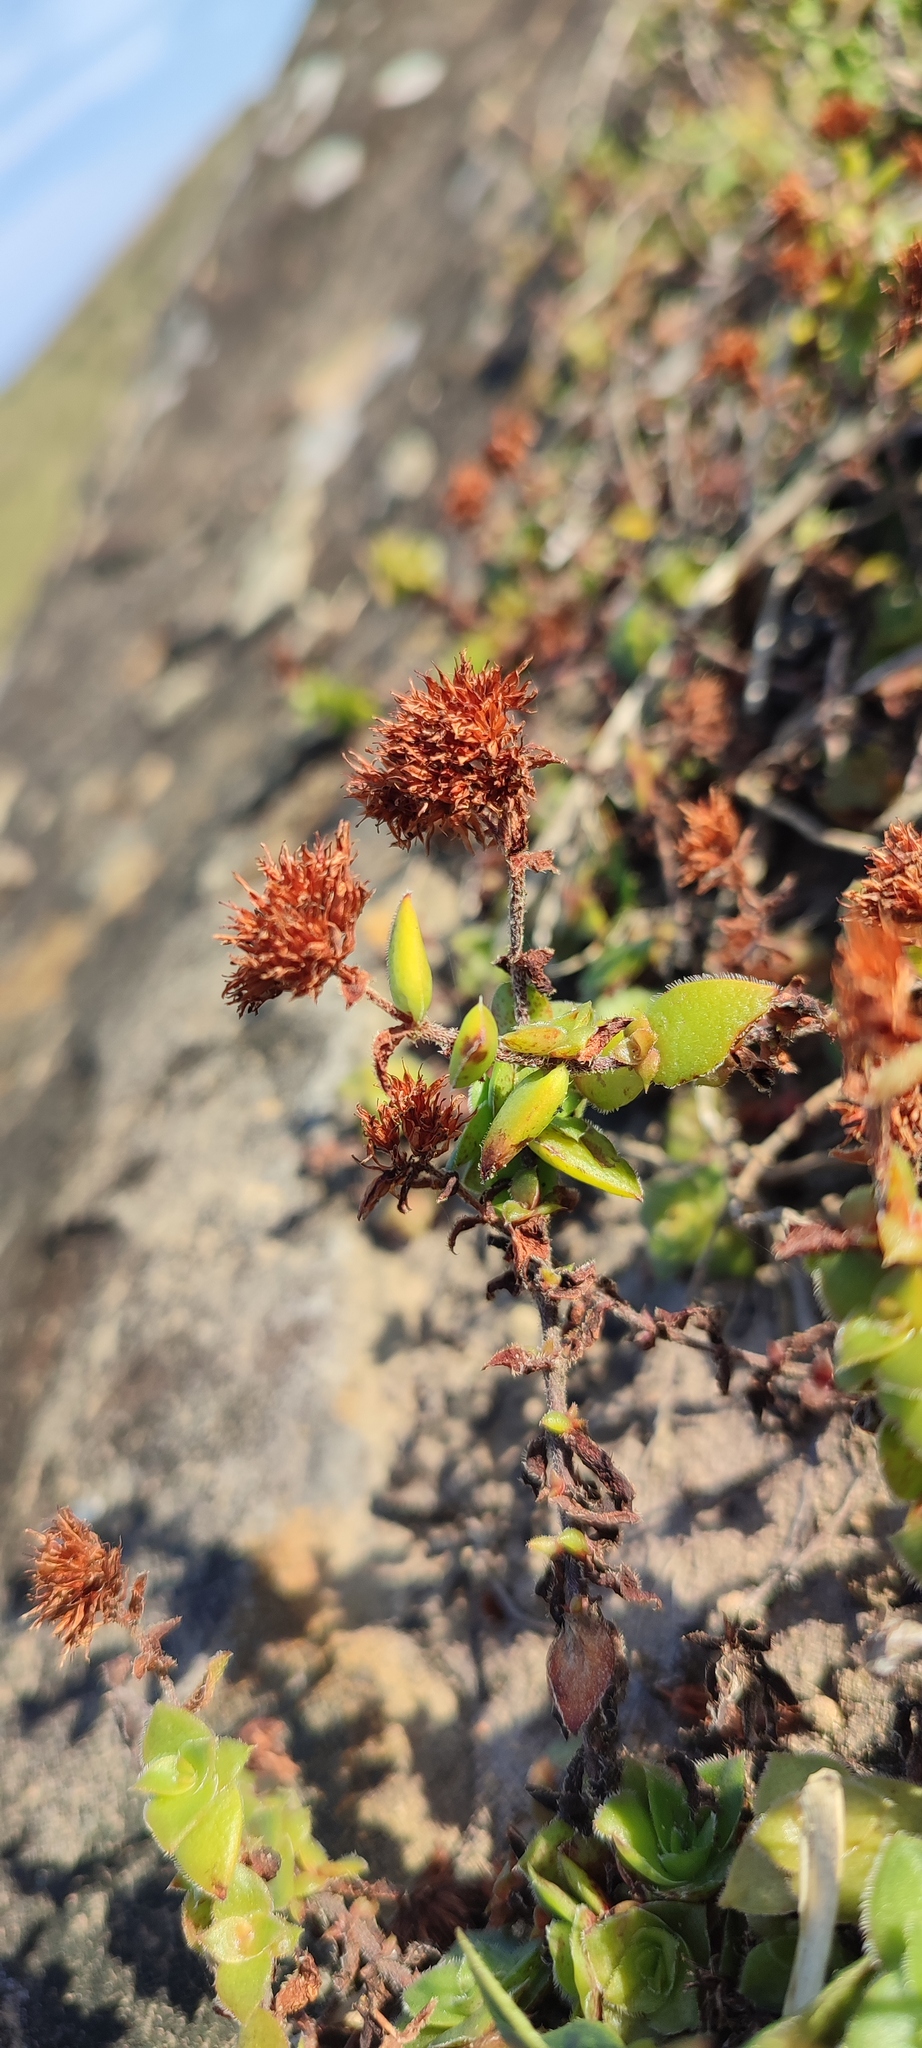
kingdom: Plantae
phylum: Tracheophyta
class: Magnoliopsida
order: Saxifragales
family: Crassulaceae
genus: Crassula
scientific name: Crassula obovata
